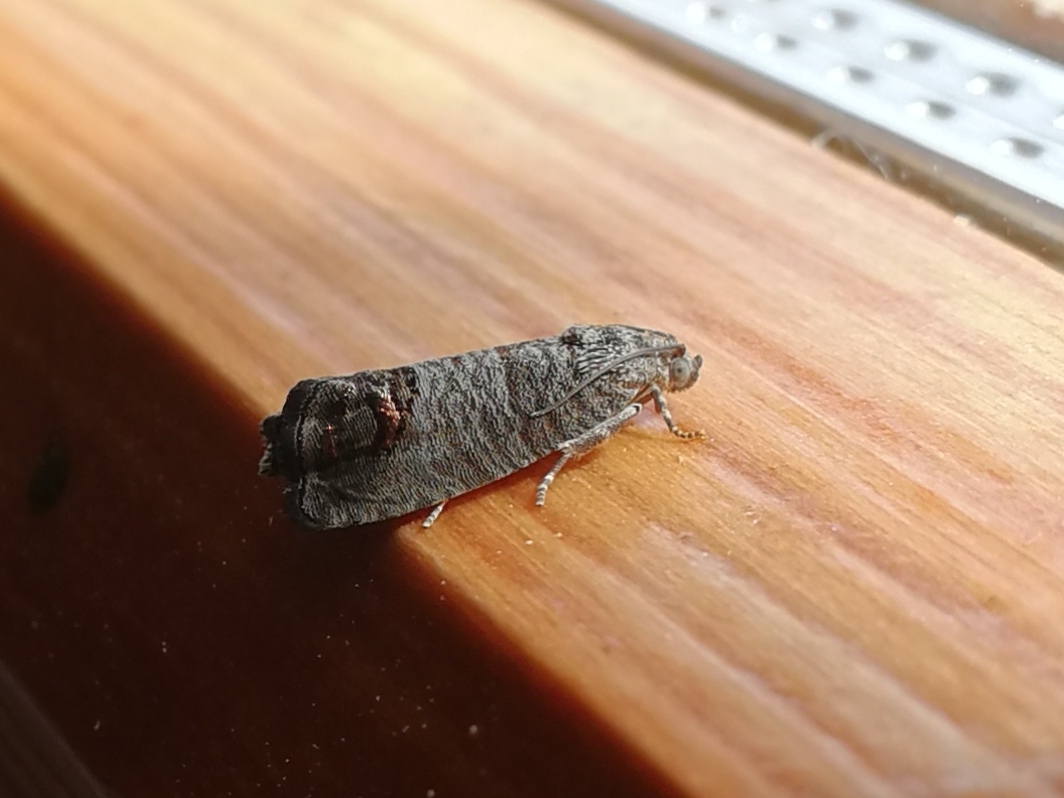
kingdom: Animalia
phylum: Arthropoda
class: Insecta
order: Lepidoptera
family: Tortricidae
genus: Cydia
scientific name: Cydia pomonella
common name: Codling moth
